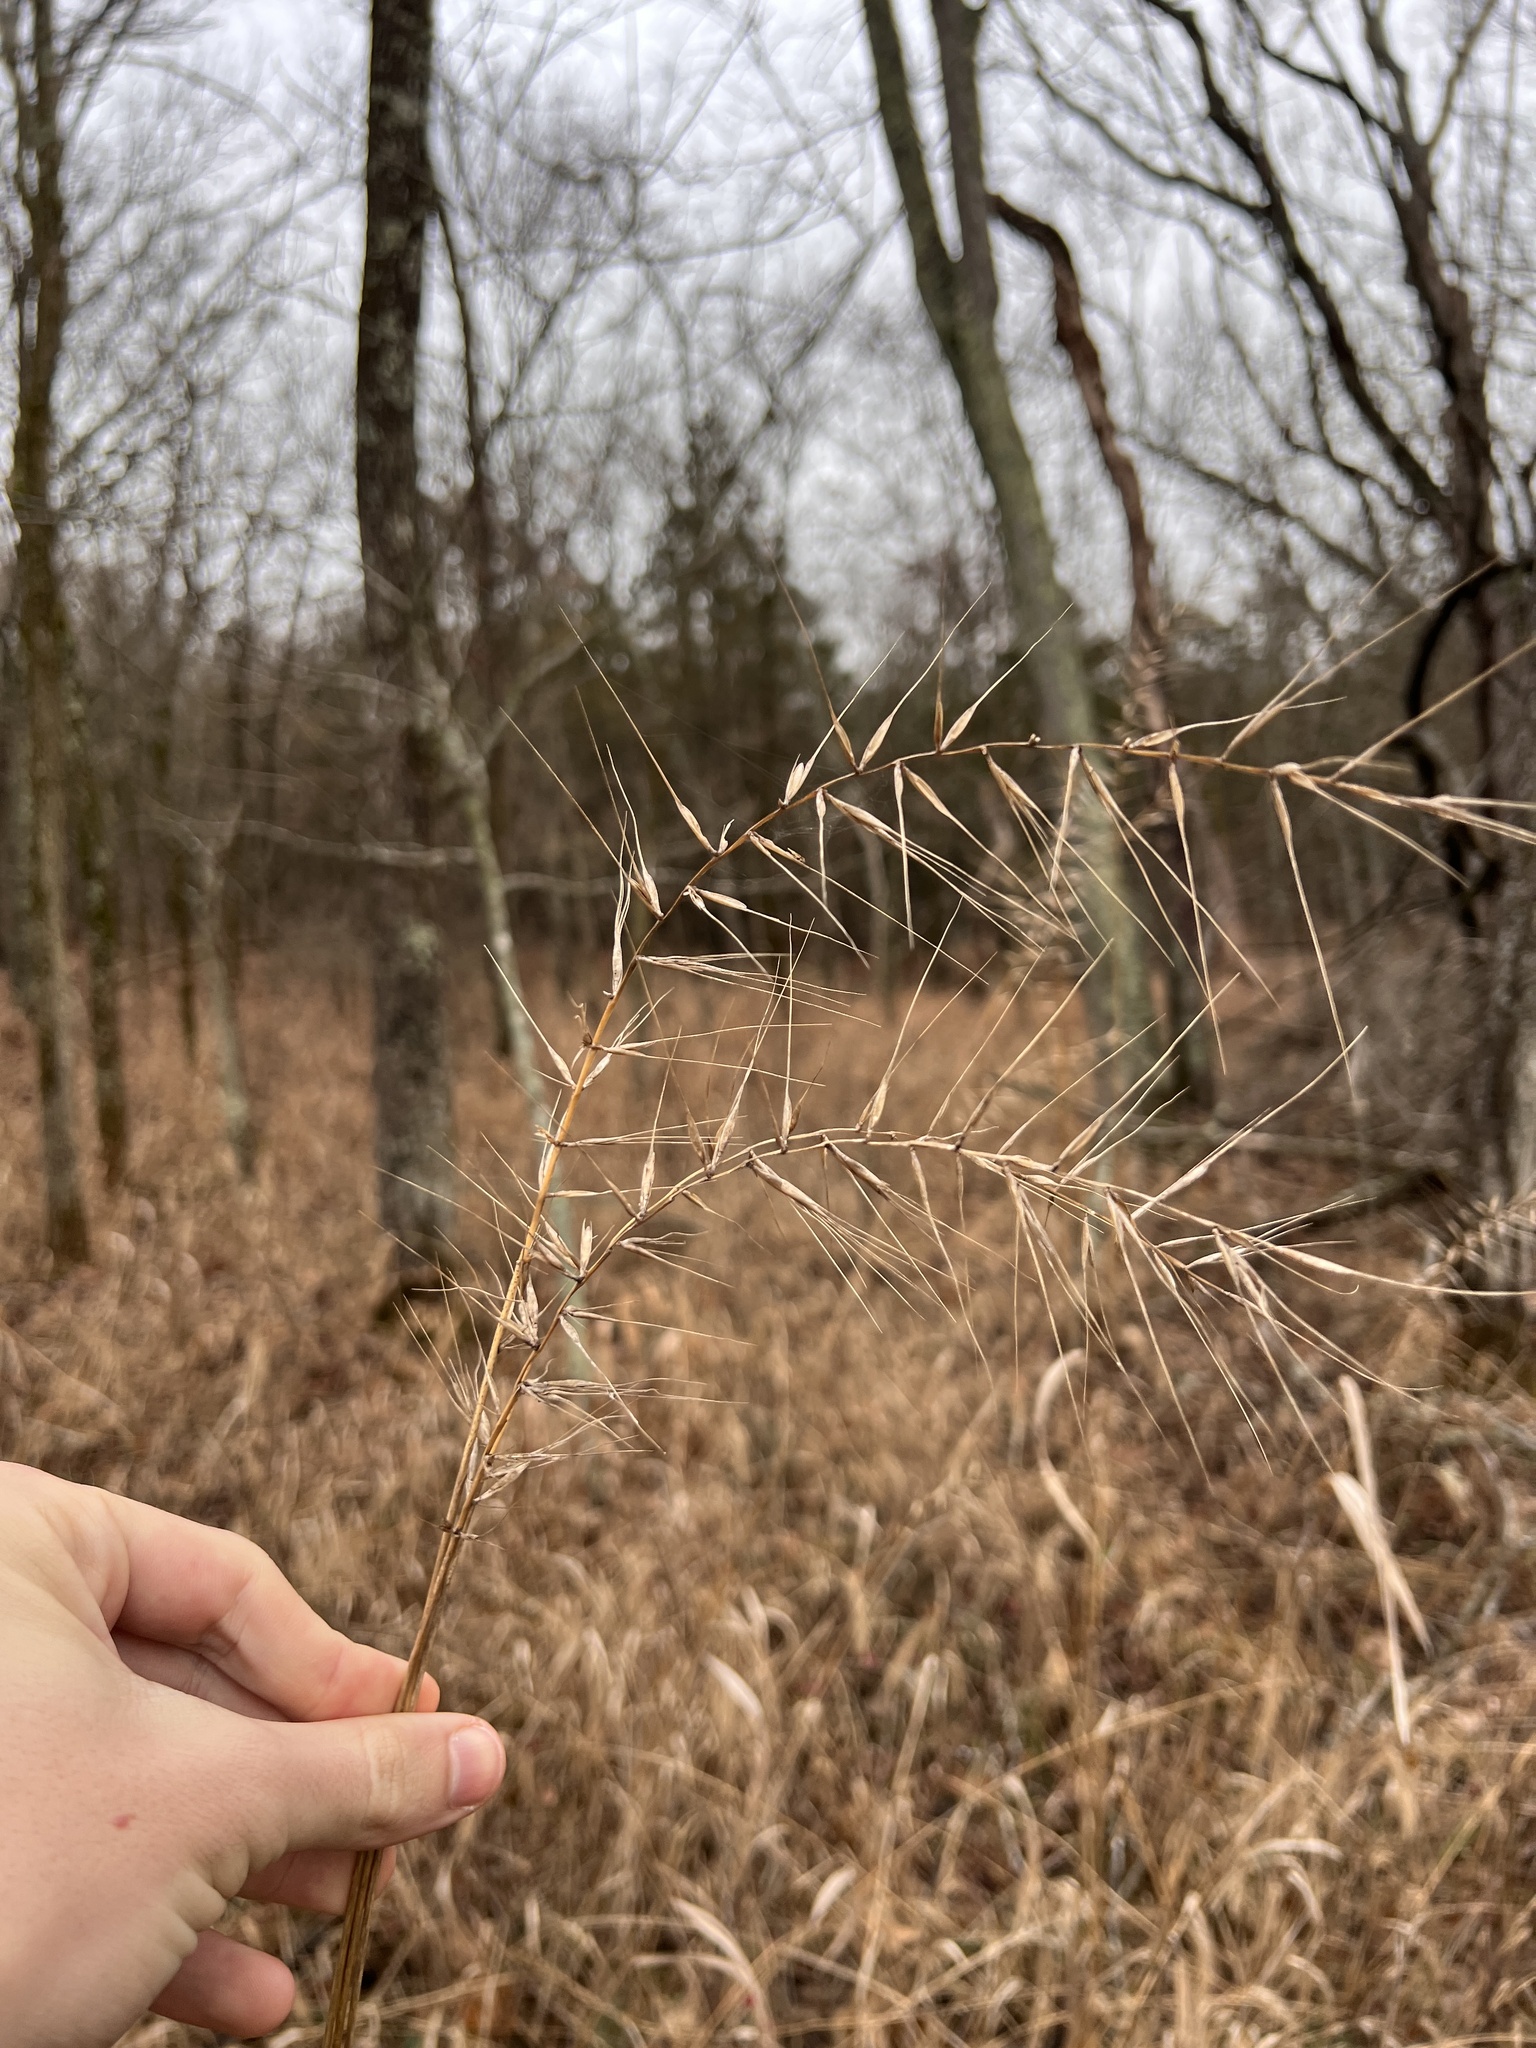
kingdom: Plantae
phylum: Tracheophyta
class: Liliopsida
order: Poales
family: Poaceae
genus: Elymus
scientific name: Elymus hystrix
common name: Bottlebrush grass
